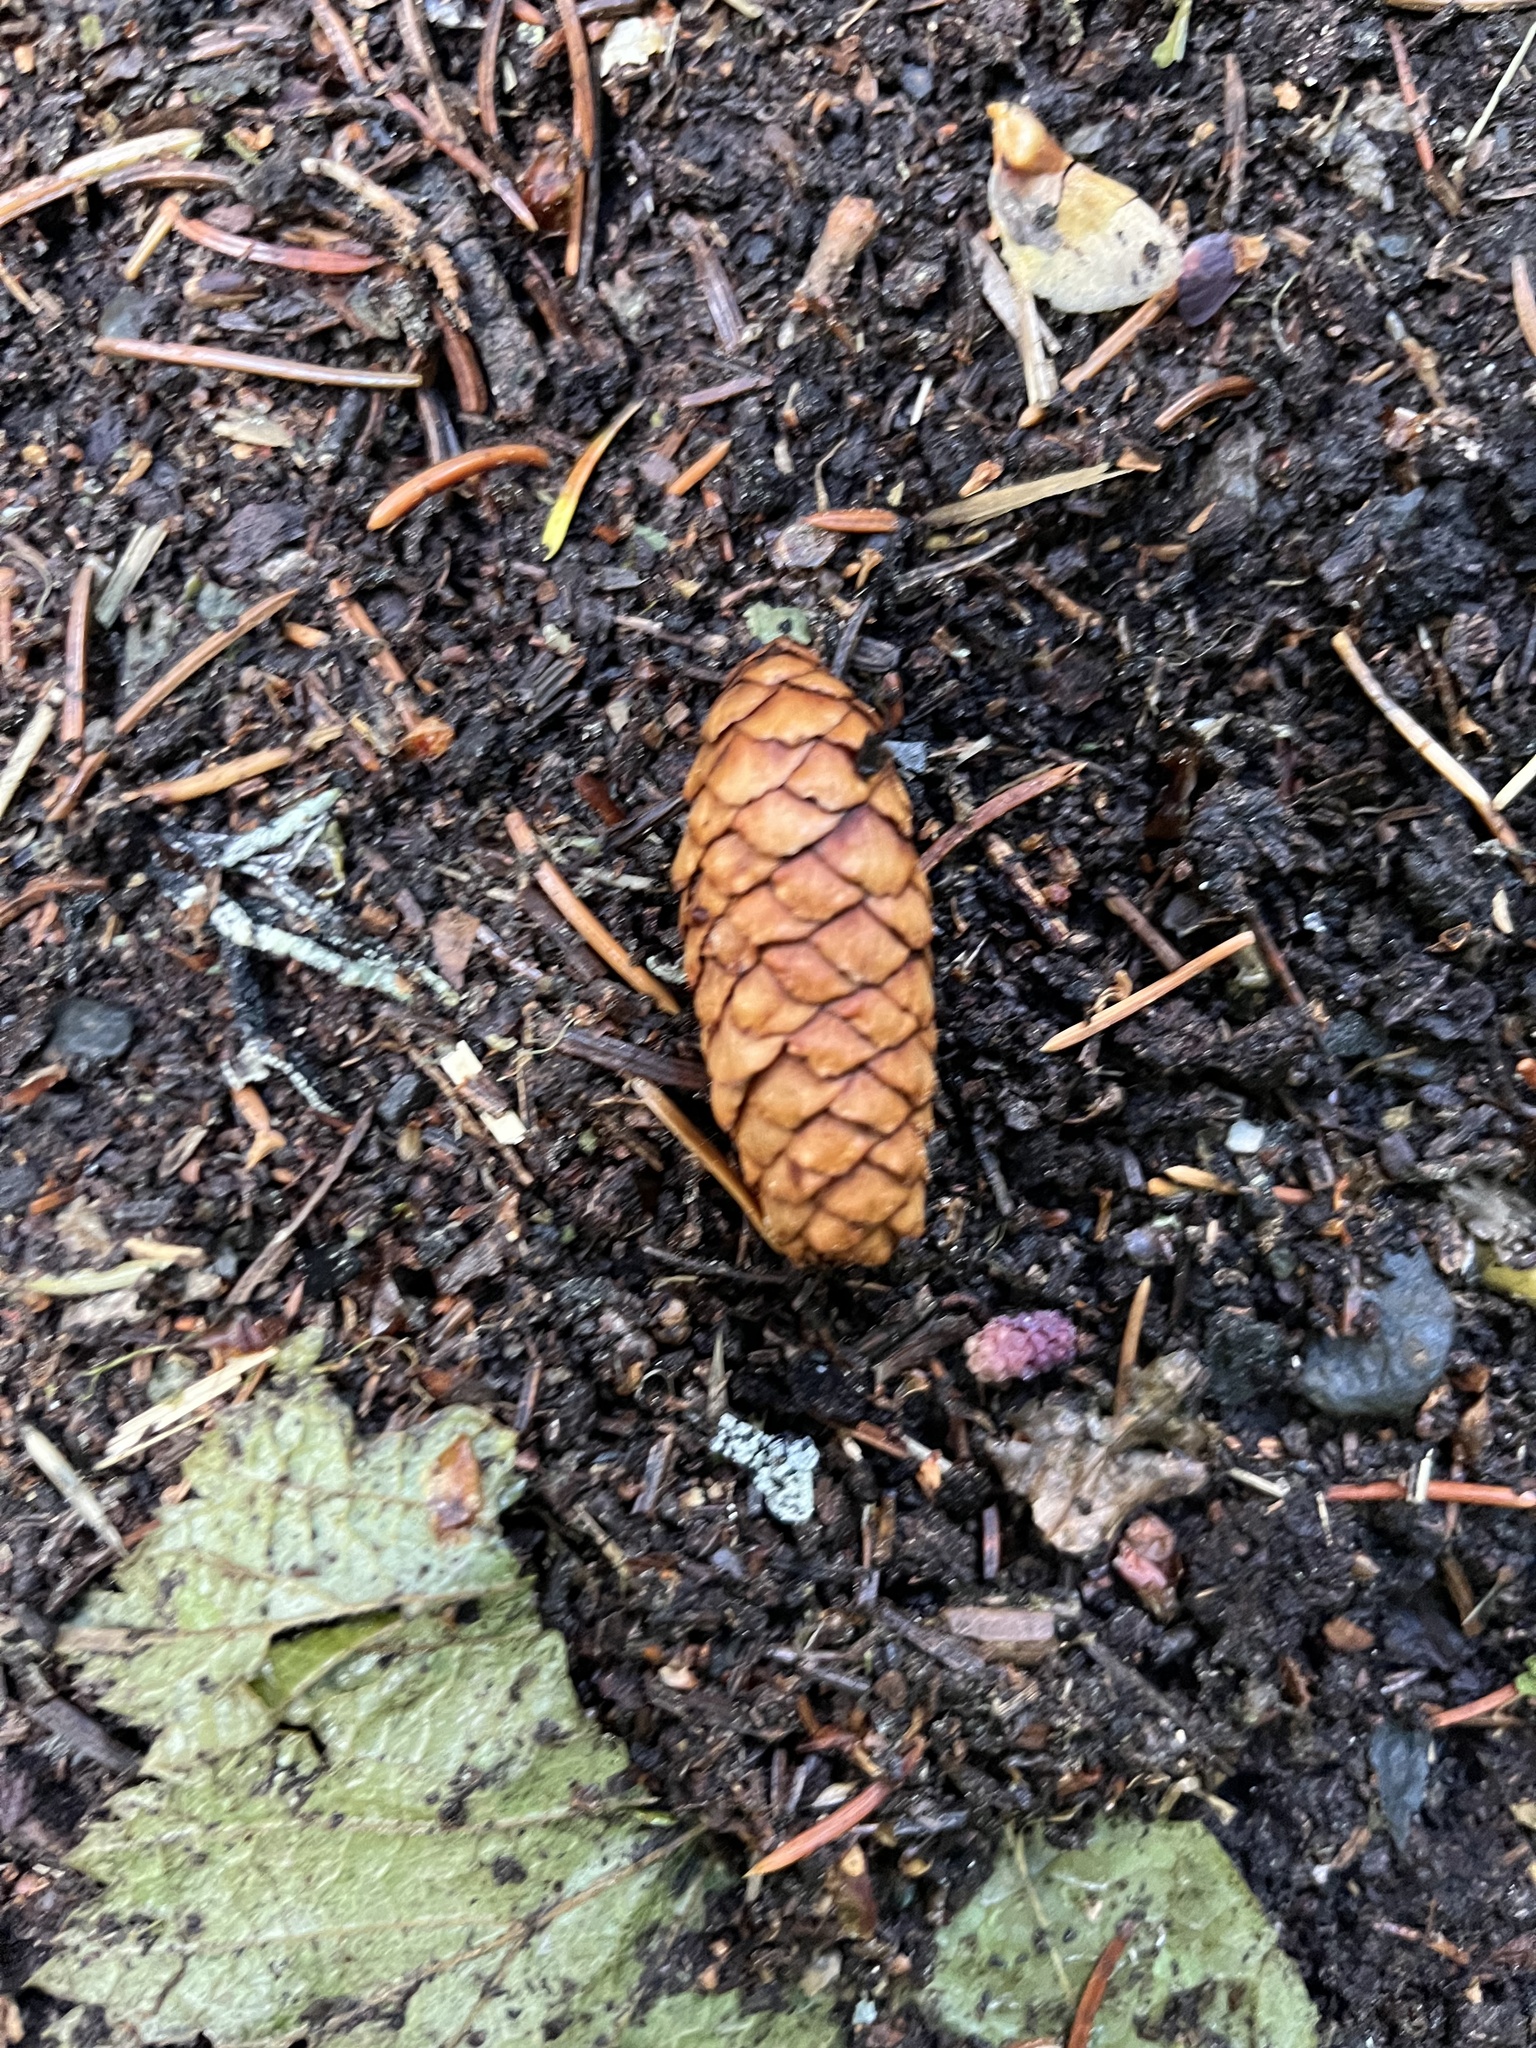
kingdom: Plantae
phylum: Tracheophyta
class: Pinopsida
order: Pinales
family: Pinaceae
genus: Picea
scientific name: Picea engelmannii
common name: Engelmann spruce
